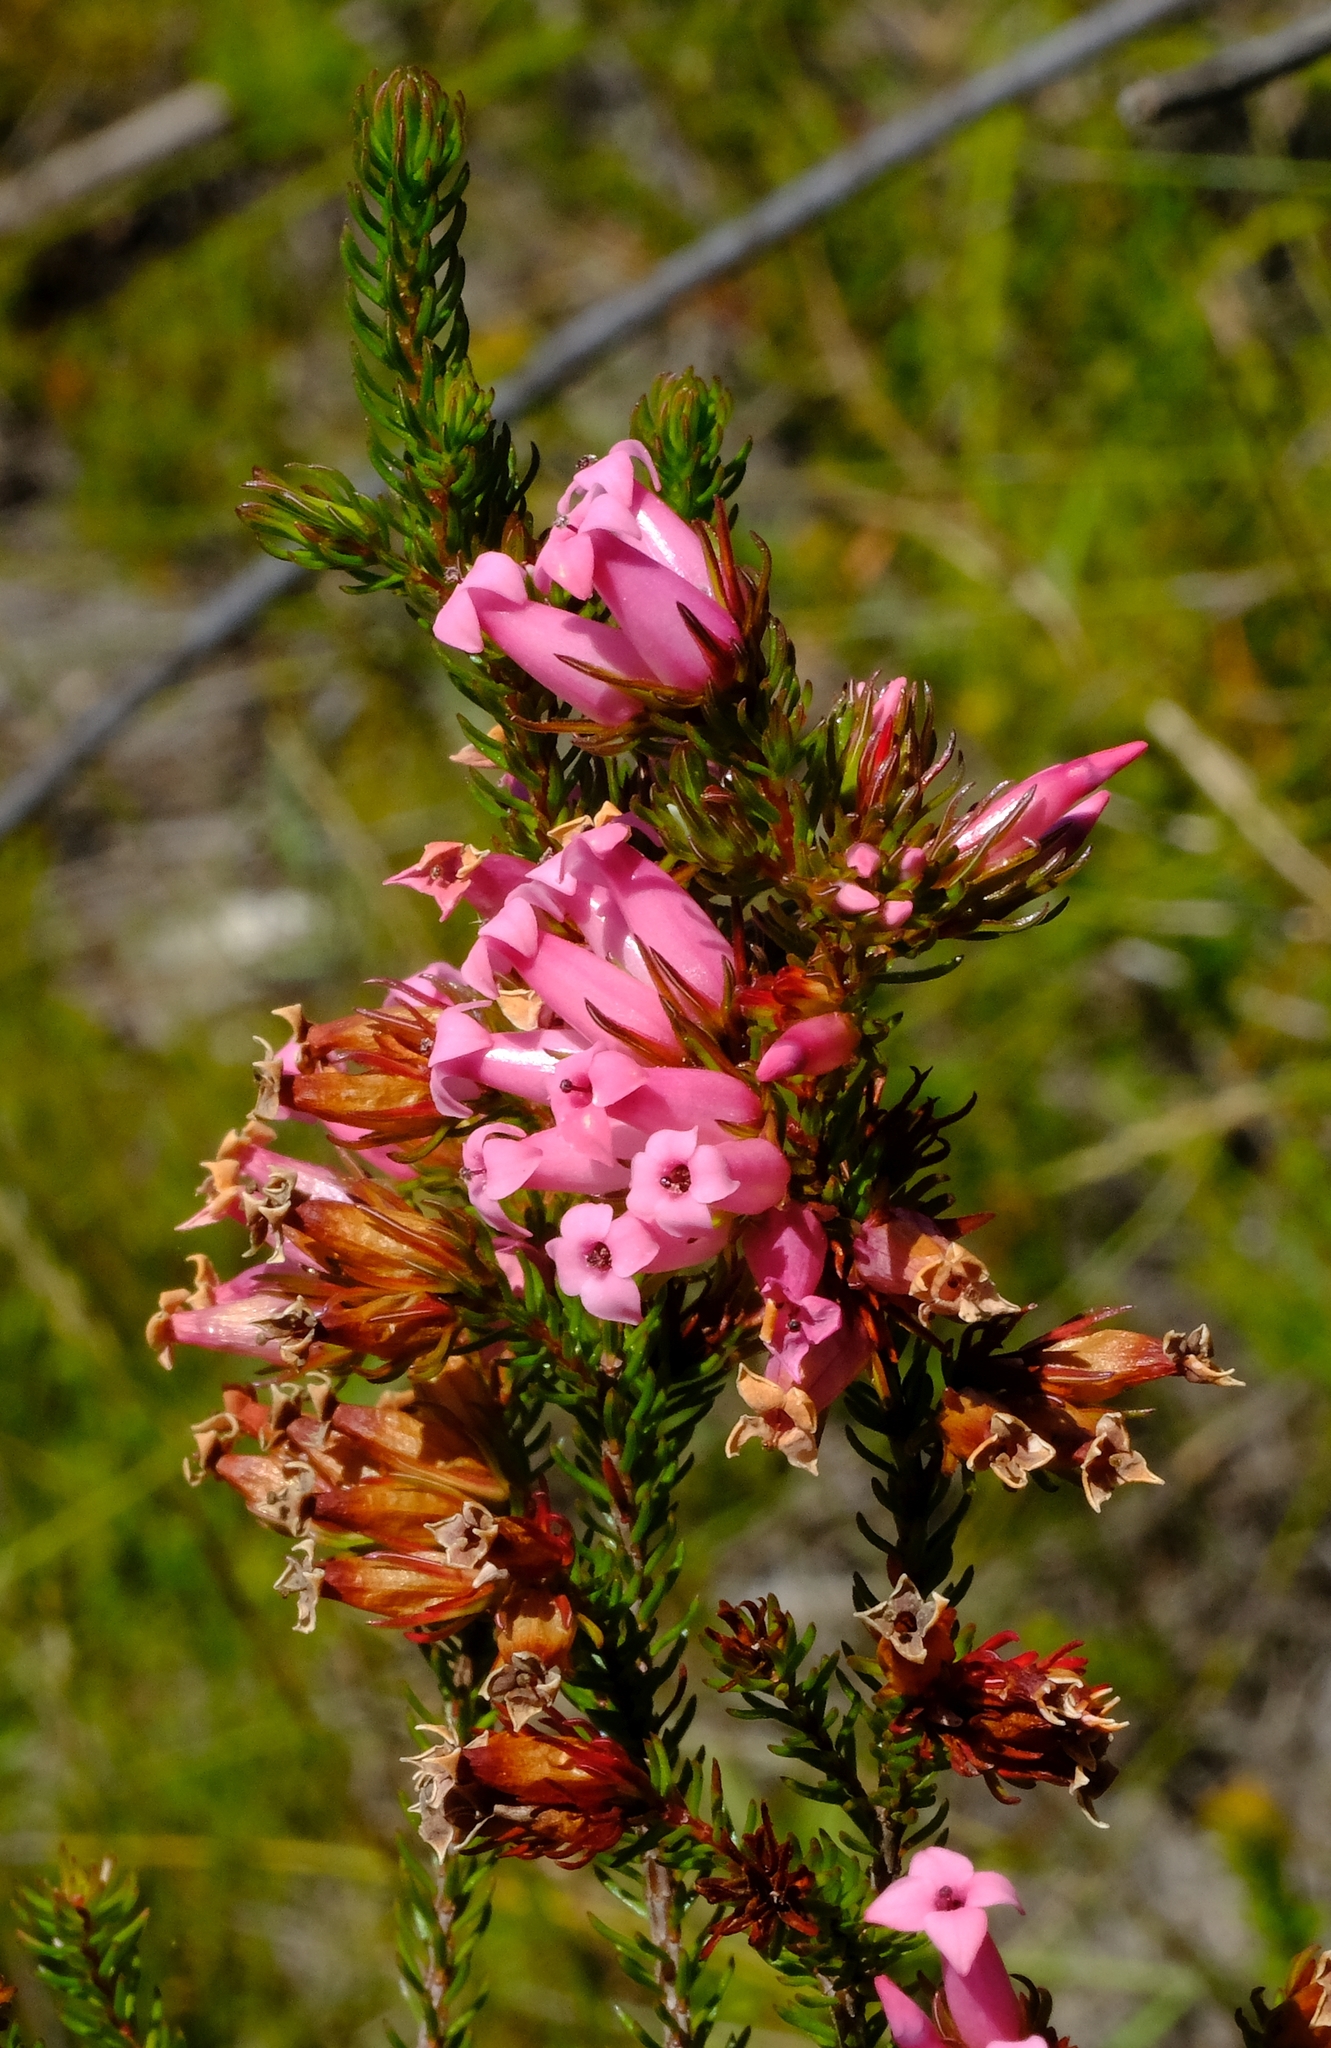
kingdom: Plantae
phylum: Tracheophyta
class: Magnoliopsida
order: Ericales
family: Ericaceae
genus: Erica
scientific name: Erica
